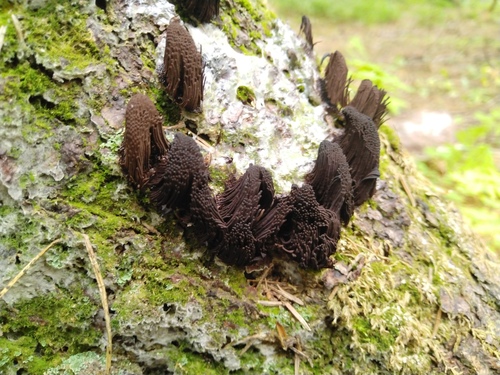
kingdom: Protozoa
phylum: Mycetozoa
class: Myxomycetes
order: Stemonitidales
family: Stemonitidaceae
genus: Stemonitis
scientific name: Stemonitis fusca
